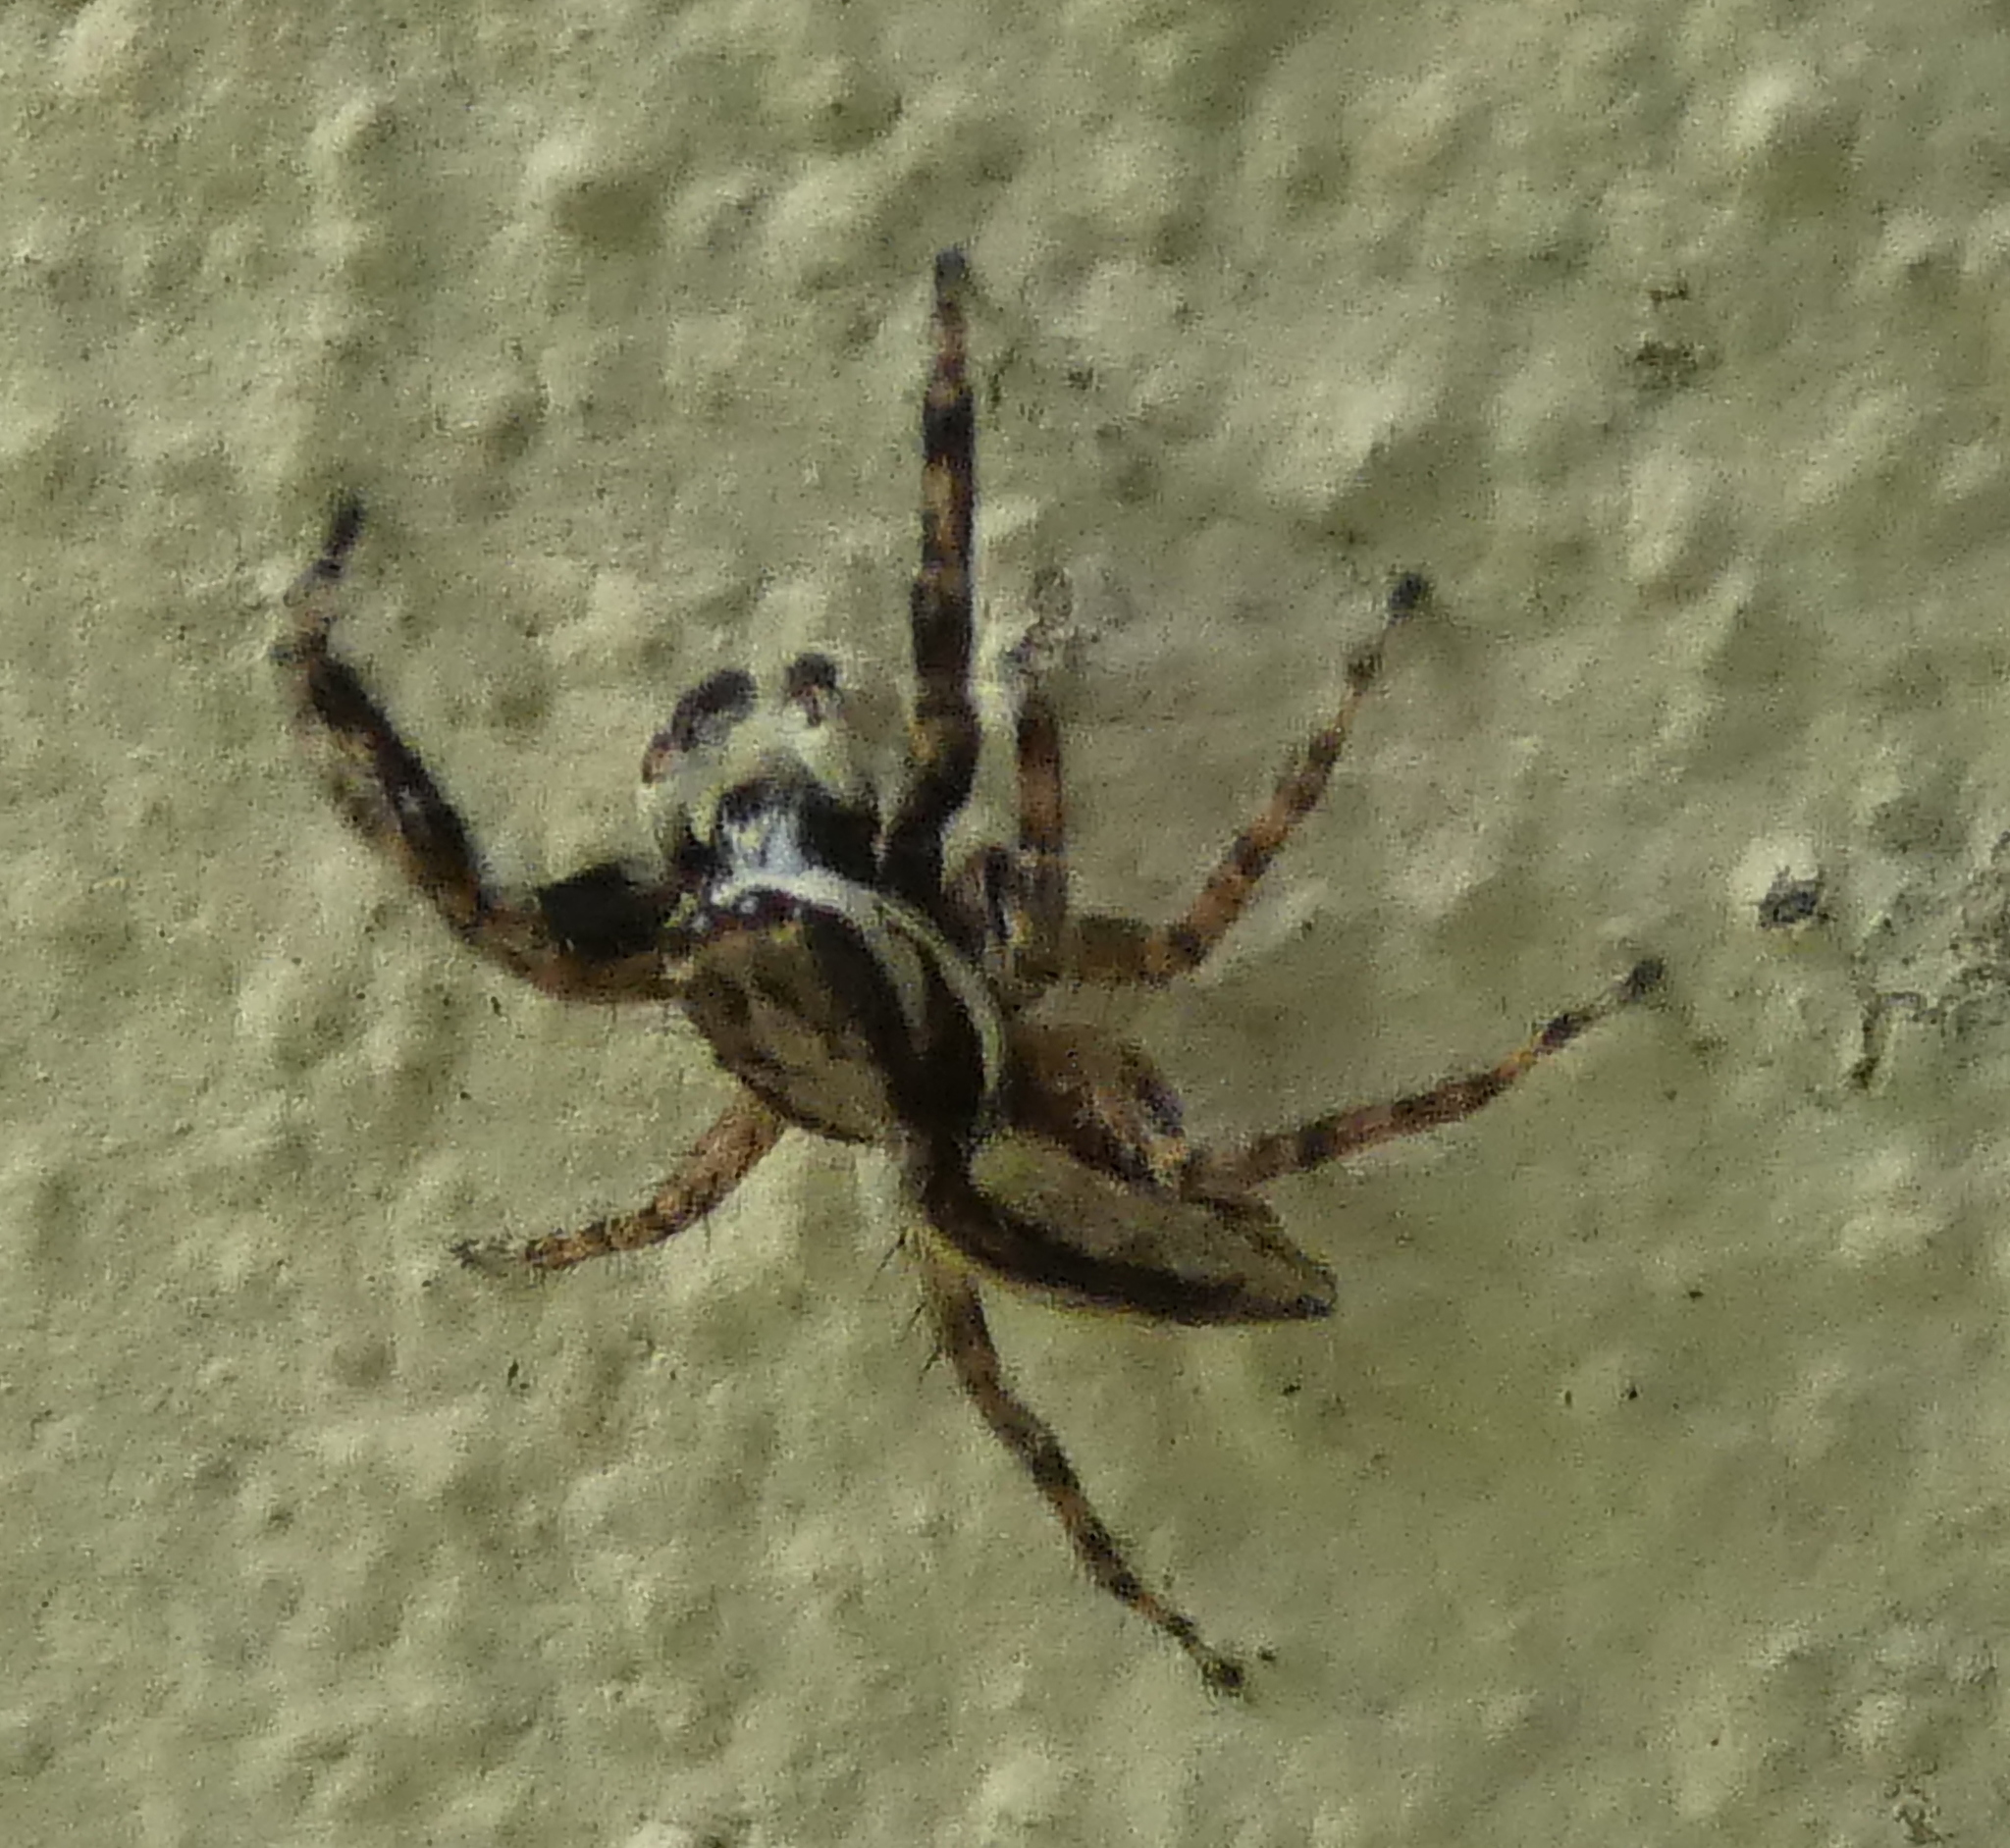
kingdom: Animalia
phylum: Arthropoda
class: Arachnida
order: Araneae
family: Salticidae
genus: Menemerus
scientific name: Menemerus bivittatus
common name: Gray wall jumper
